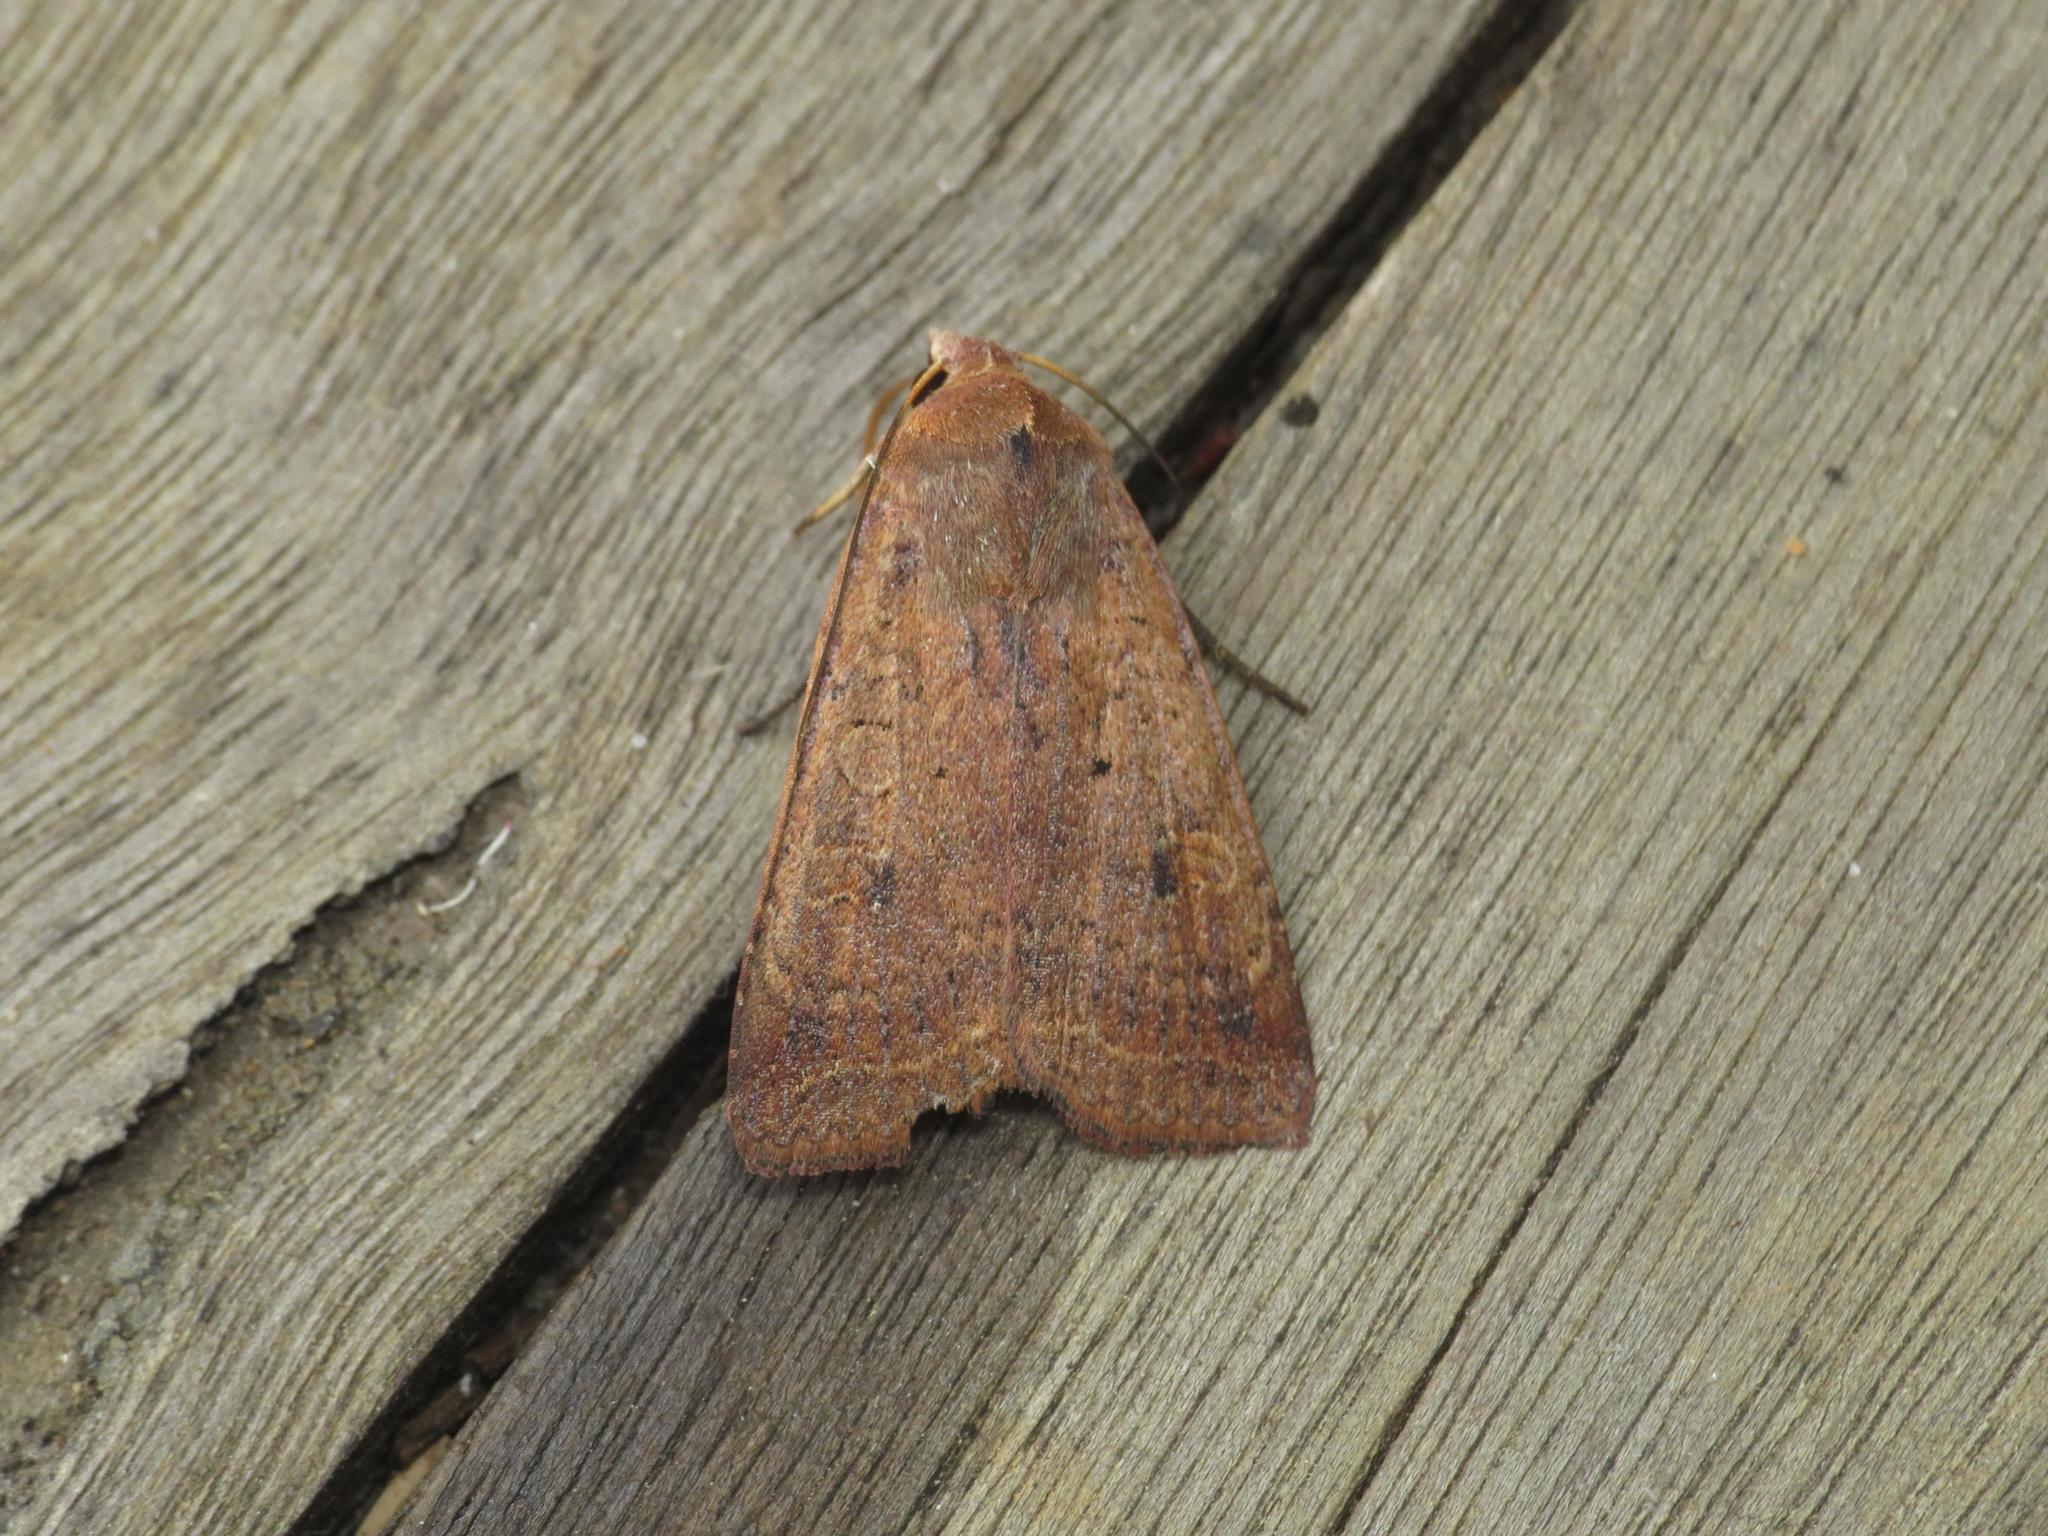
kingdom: Animalia
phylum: Arthropoda
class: Insecta
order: Lepidoptera
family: Noctuidae
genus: Diarsia
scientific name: Diarsia intermixta
